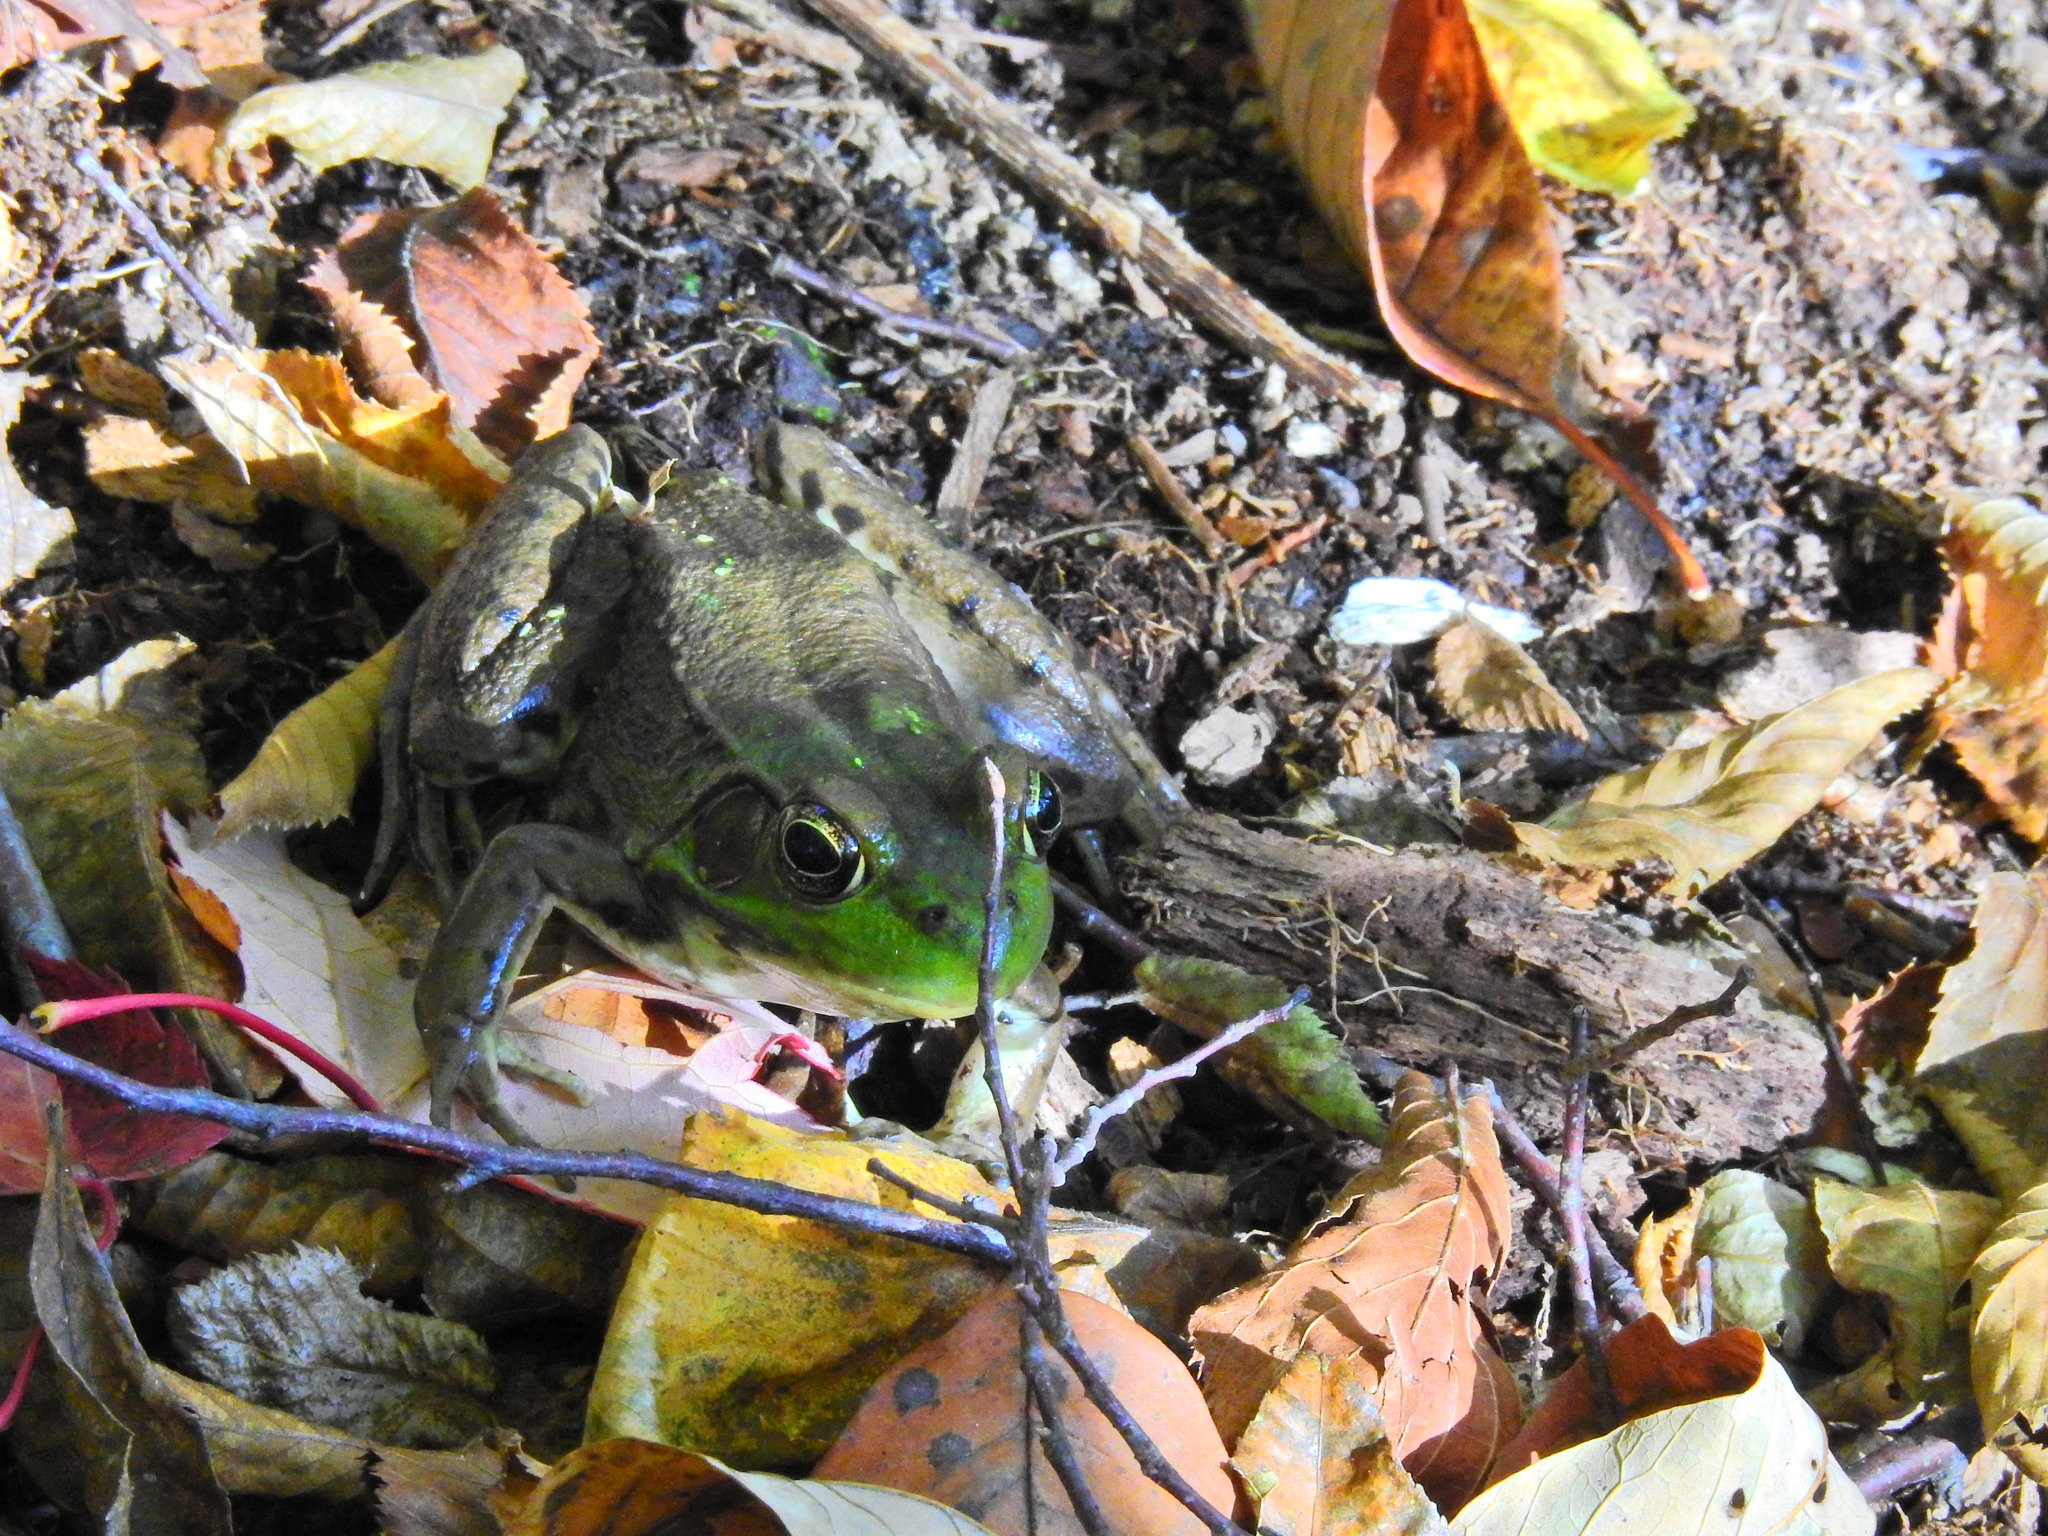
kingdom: Animalia
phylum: Chordata
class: Amphibia
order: Anura
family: Ranidae
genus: Lithobates
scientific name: Lithobates clamitans
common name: Green frog
